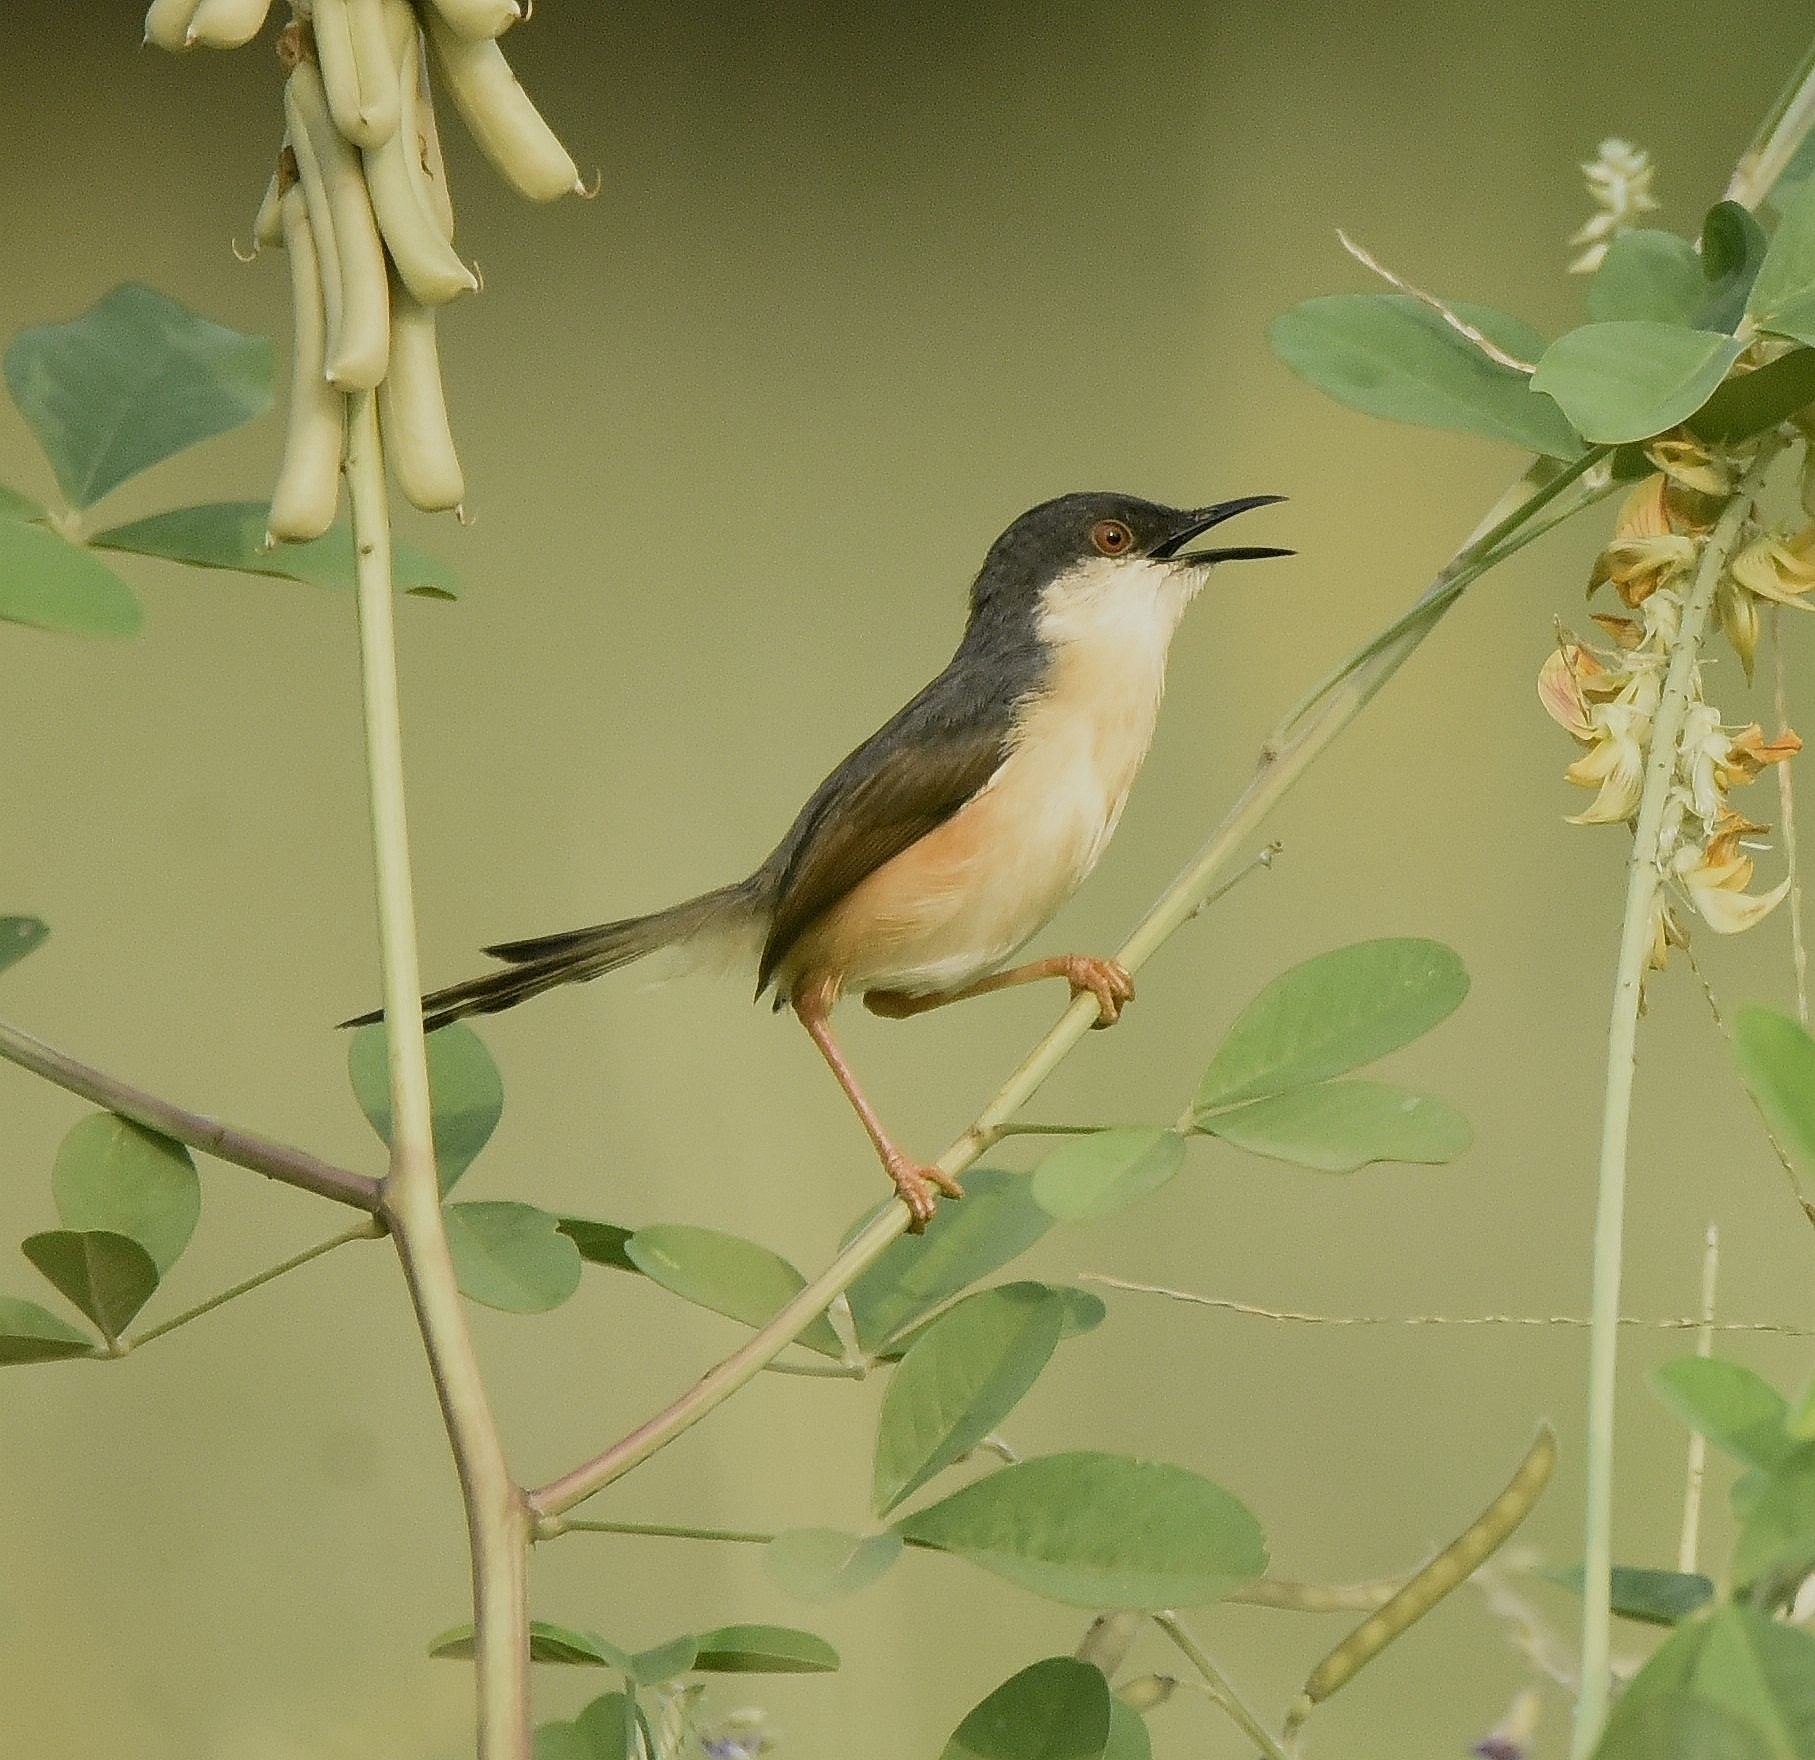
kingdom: Animalia
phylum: Chordata
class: Aves
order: Passeriformes
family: Cisticolidae
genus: Prinia
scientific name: Prinia socialis
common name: Ashy prinia
